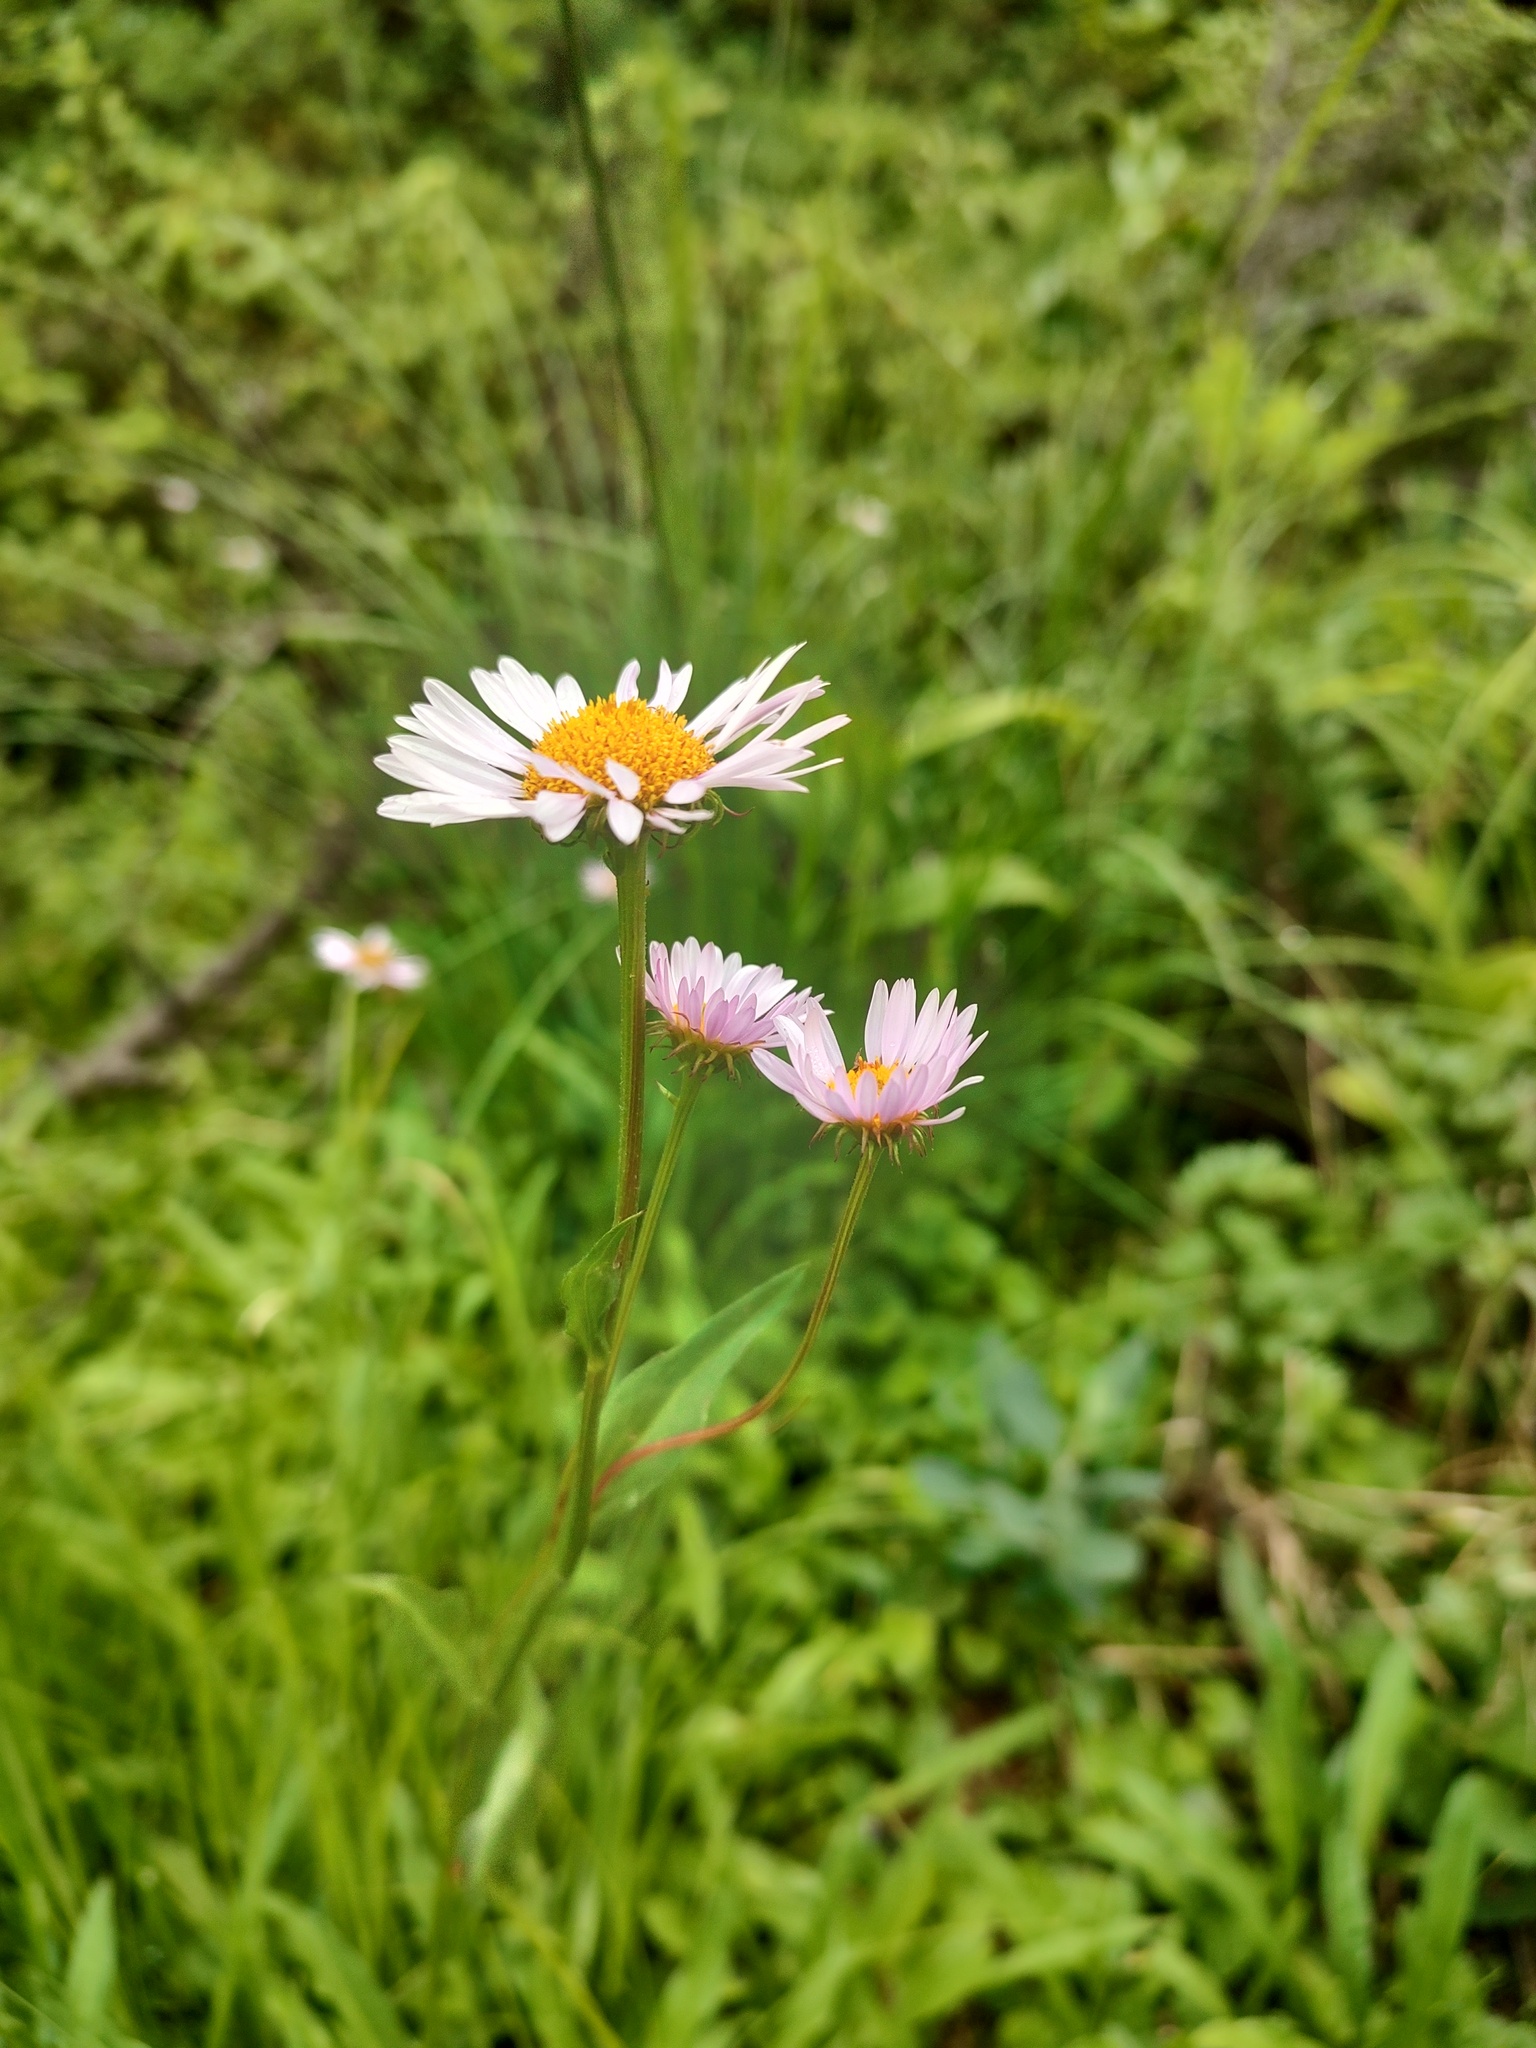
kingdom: Plantae
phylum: Tracheophyta
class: Magnoliopsida
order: Asterales
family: Asteraceae
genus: Erigeron
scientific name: Erigeron glacialis
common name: Subalpine fleabane
